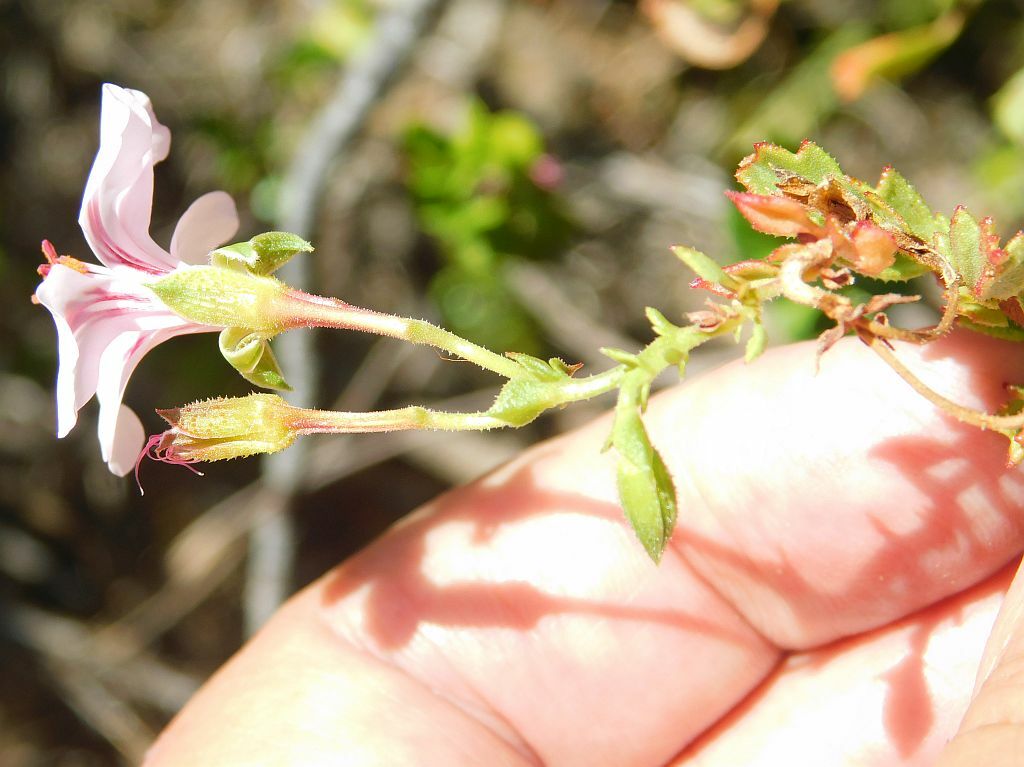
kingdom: Plantae
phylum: Tracheophyta
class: Magnoliopsida
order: Geraniales
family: Geraniaceae
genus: Pelargonium
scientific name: Pelargonium hermaniifolium
